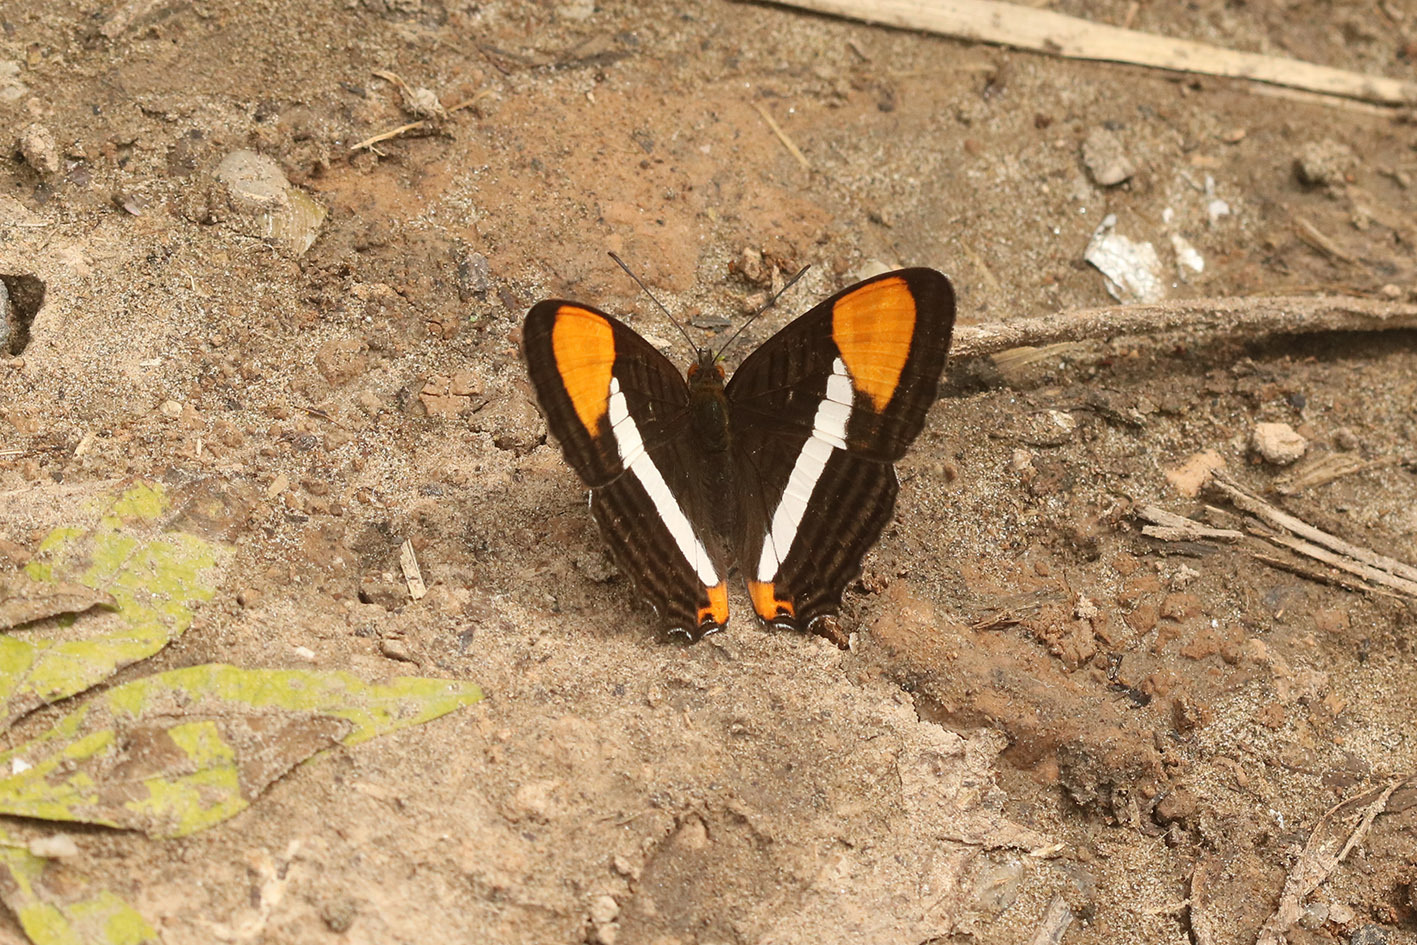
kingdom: Animalia
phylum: Arthropoda
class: Insecta
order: Lepidoptera
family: Nymphalidae
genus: Limenitis
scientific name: Limenitis syma
